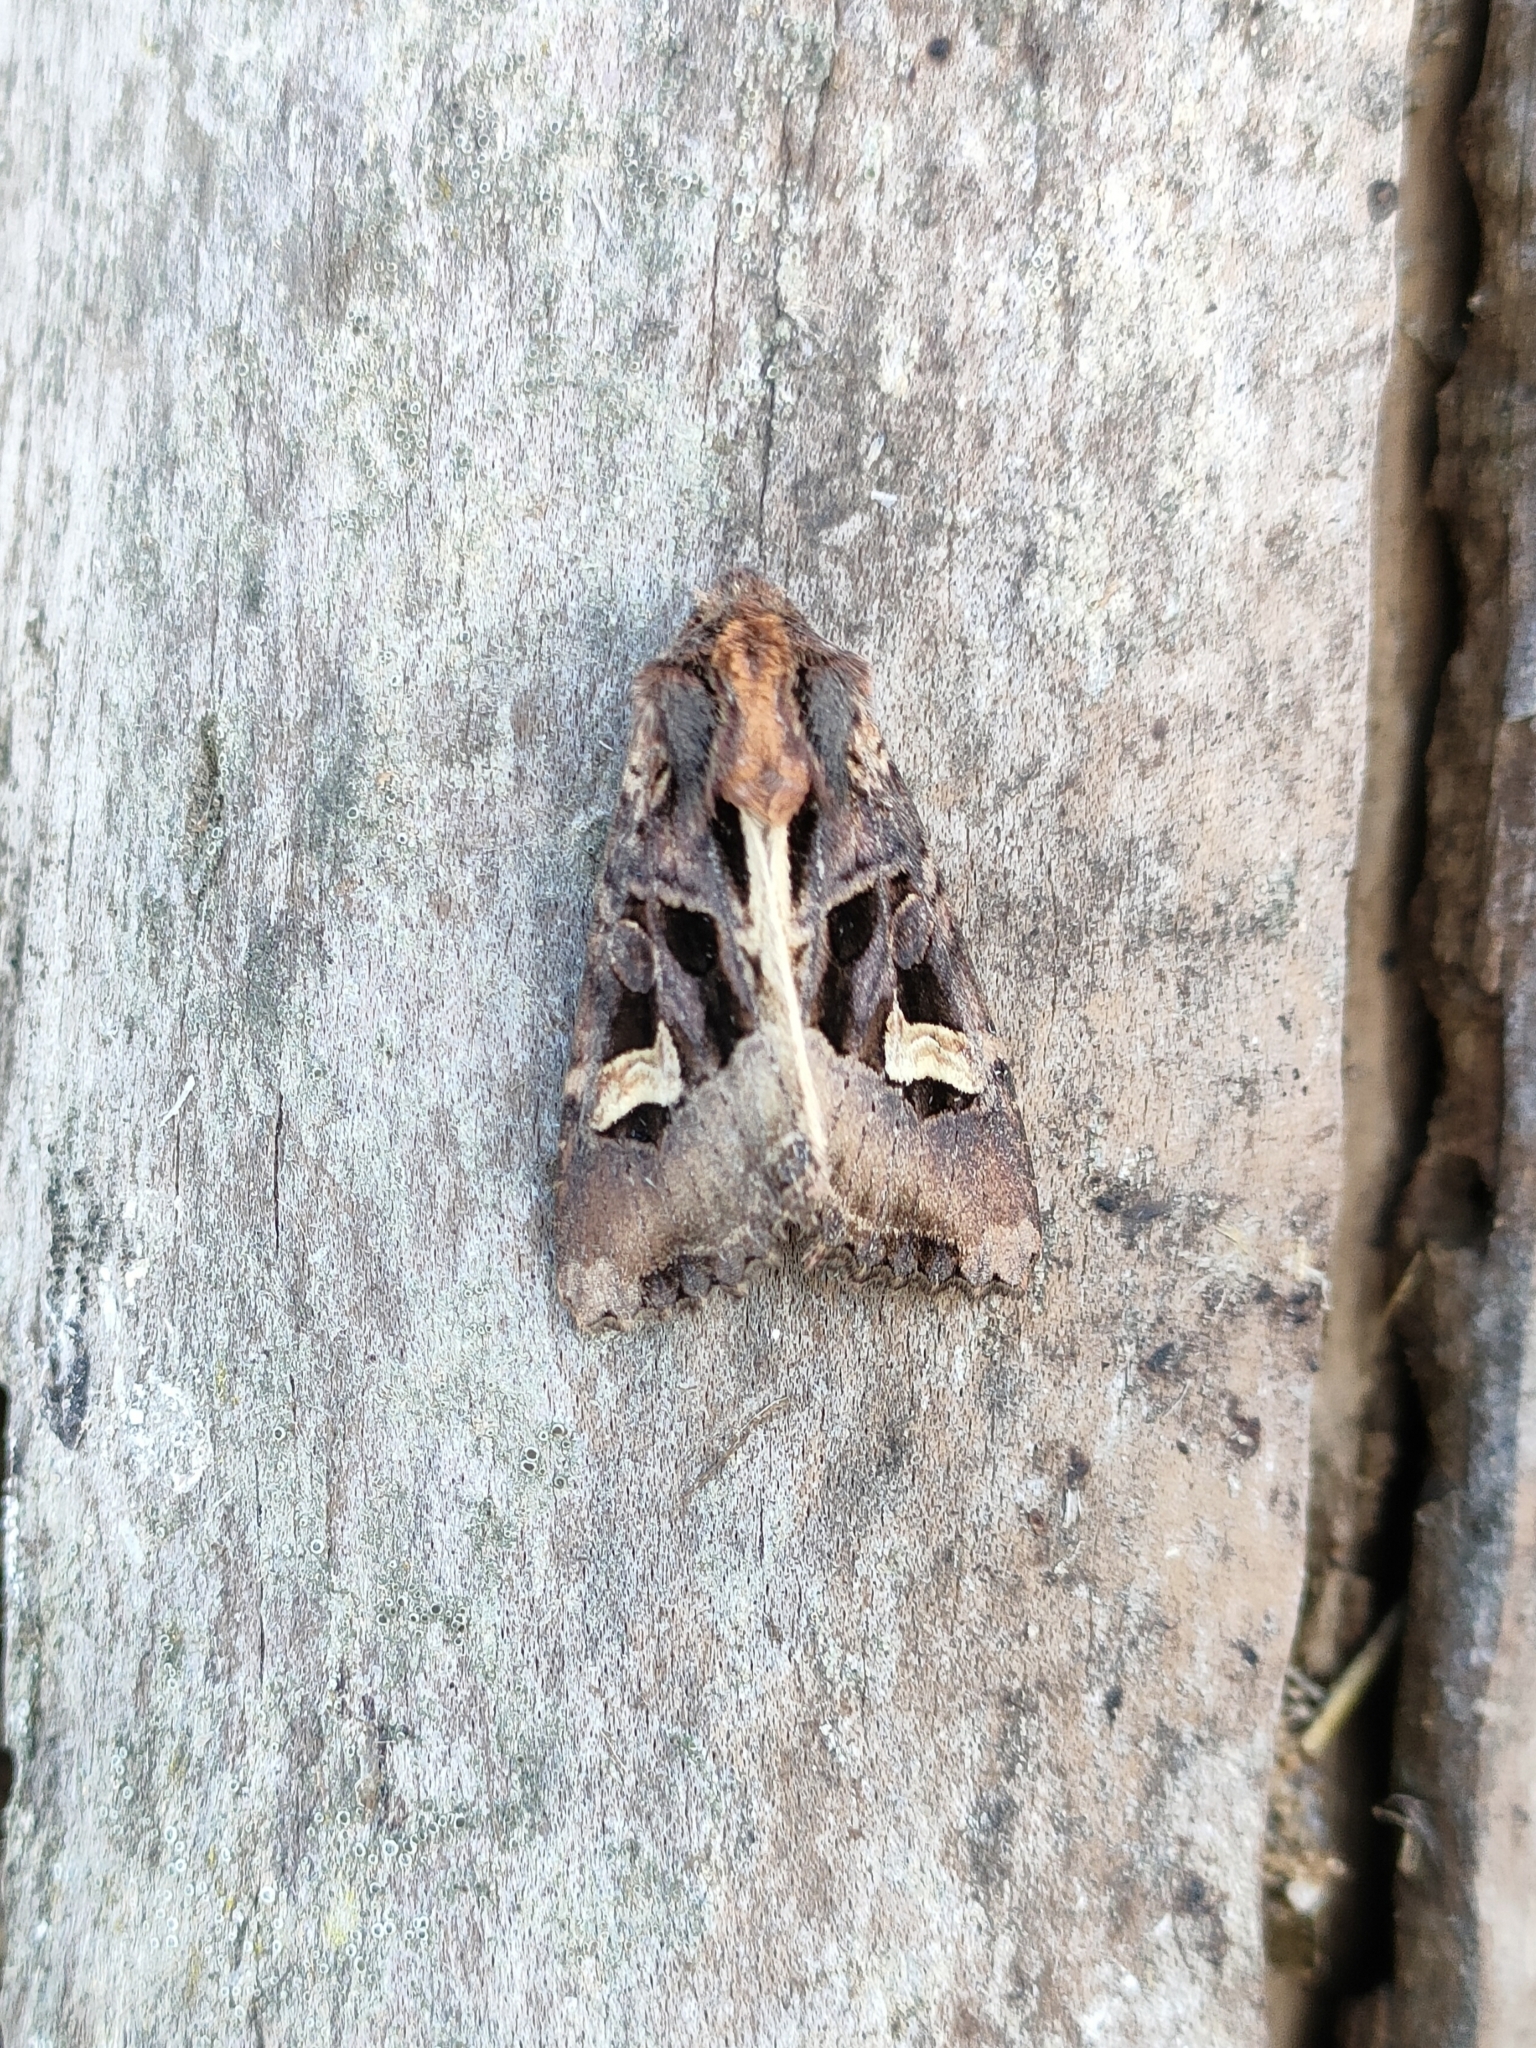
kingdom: Animalia
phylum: Arthropoda
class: Insecta
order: Lepidoptera
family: Noctuidae
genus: Trigonophora
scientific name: Trigonophora flammea
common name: Flame brocade
